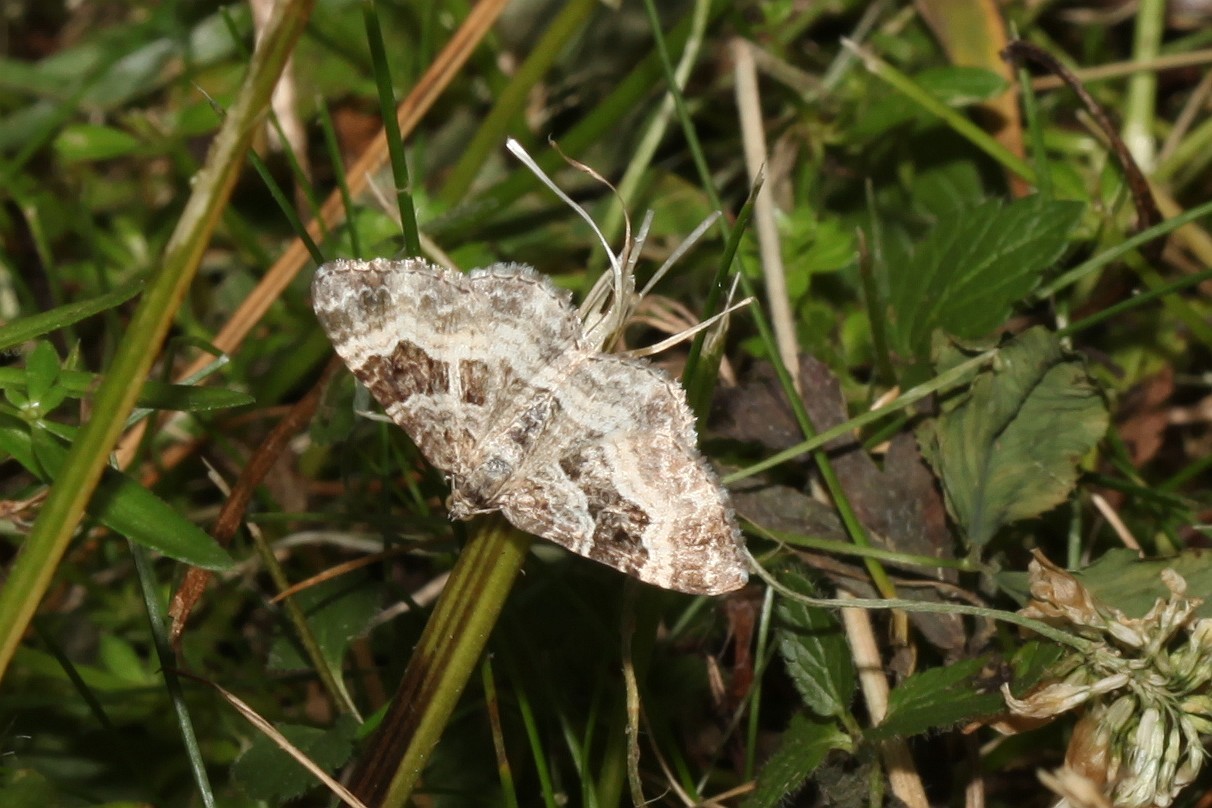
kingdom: Animalia
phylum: Arthropoda
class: Insecta
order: Lepidoptera
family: Geometridae
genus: Epirrhoe
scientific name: Epirrhoe alternata
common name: Common carpet
